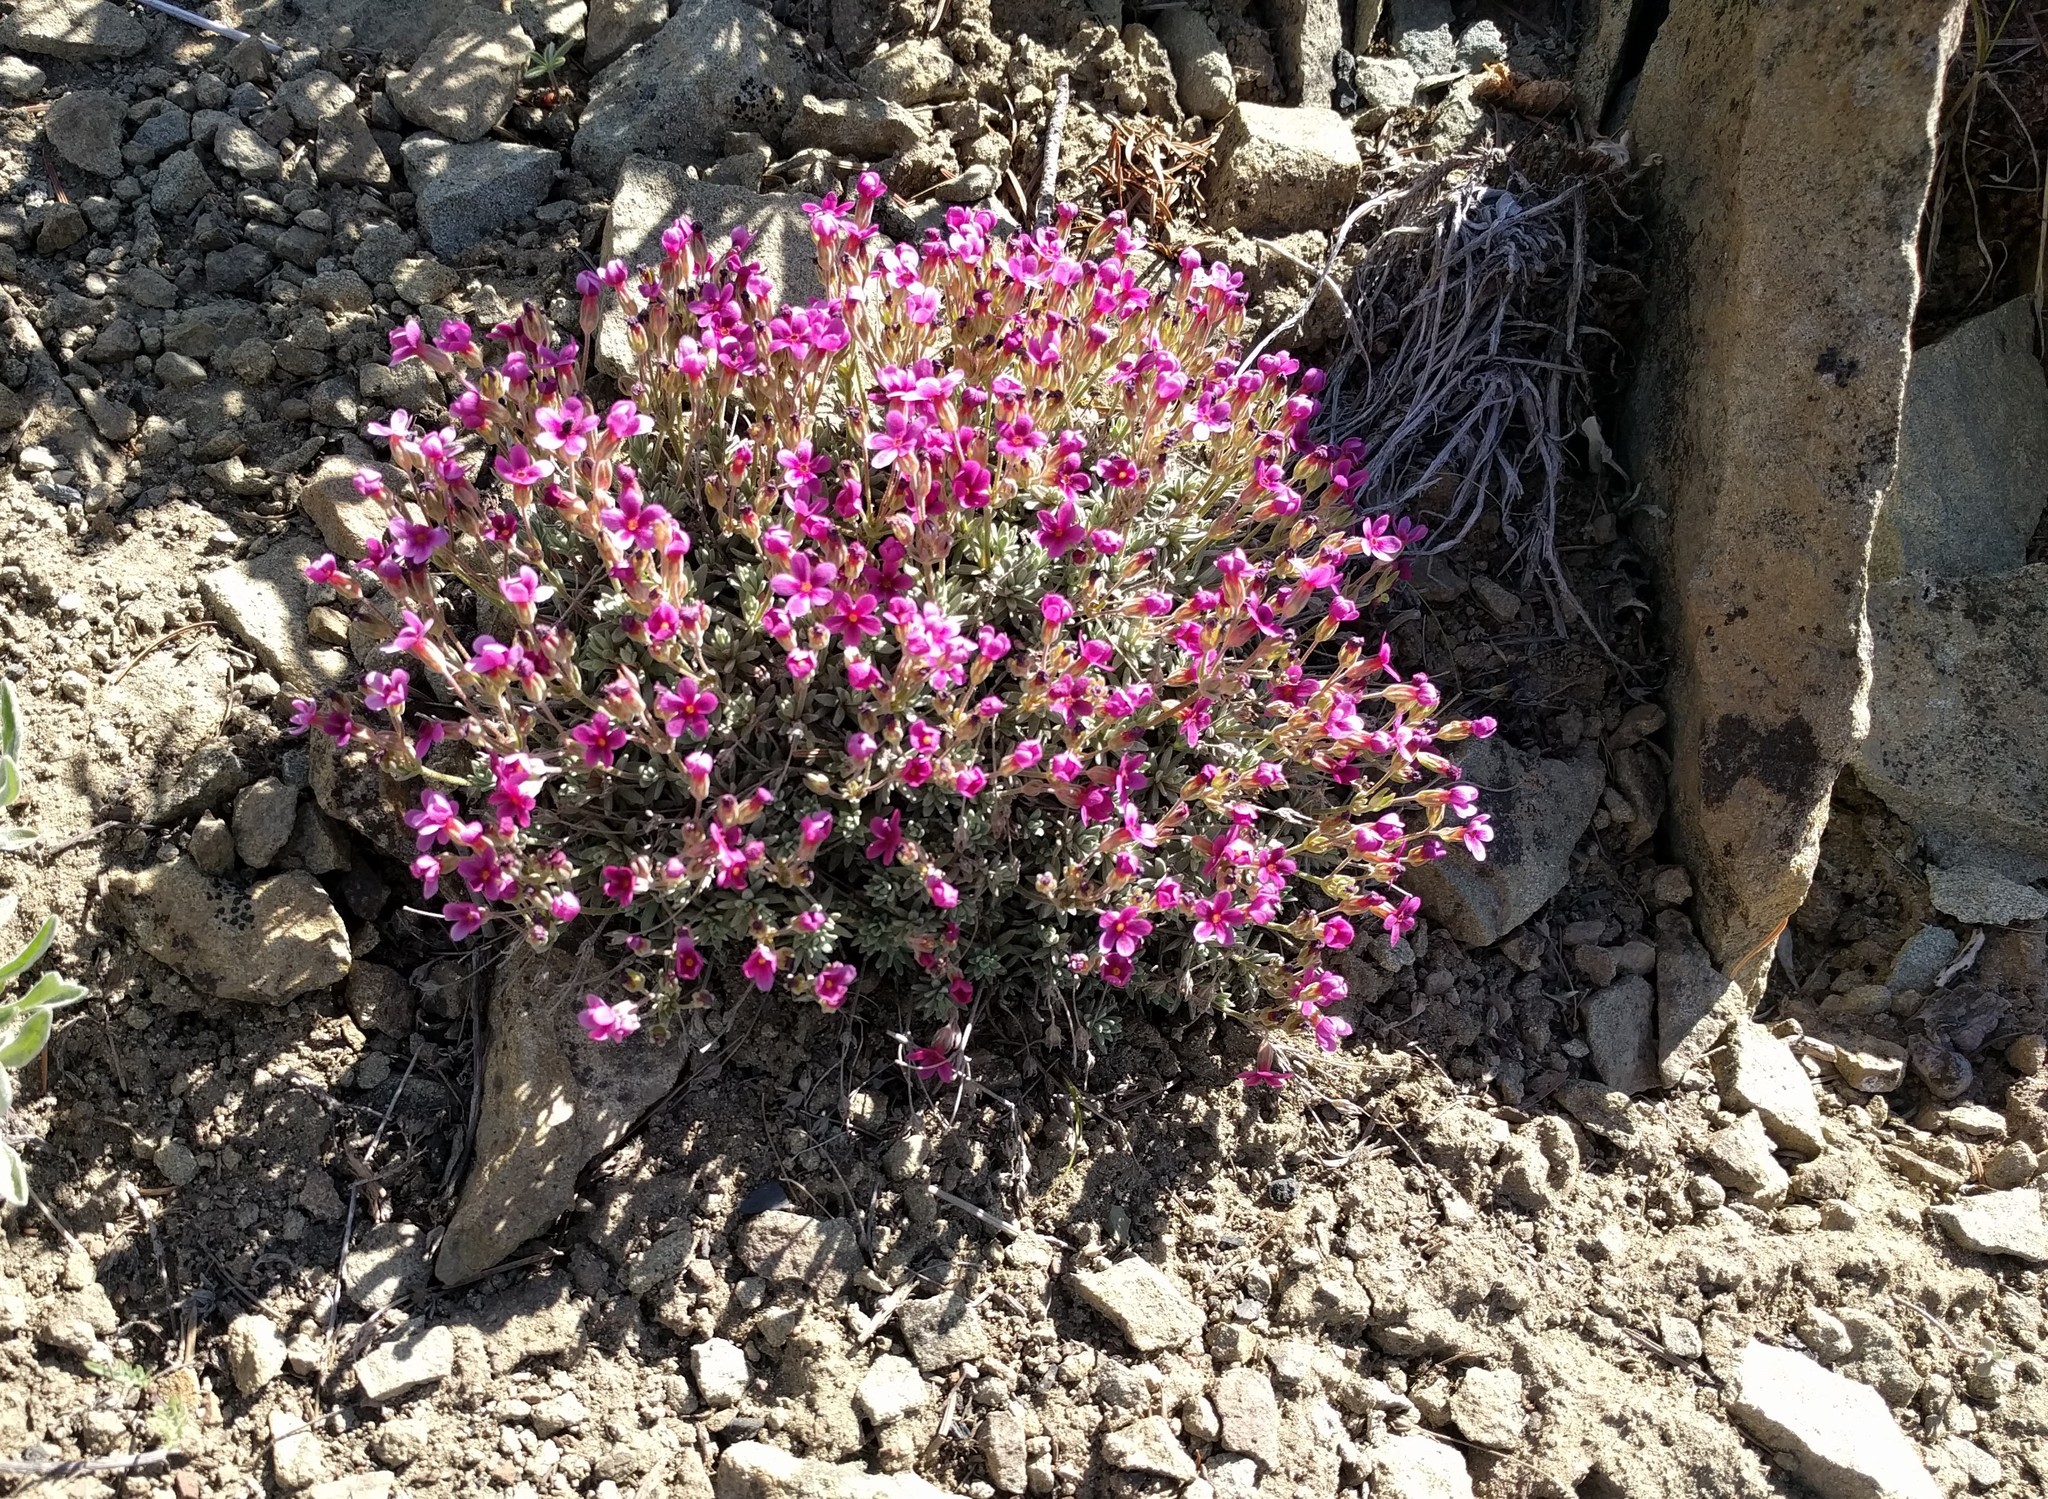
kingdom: Plantae
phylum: Tracheophyta
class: Magnoliopsida
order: Ericales
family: Primulaceae
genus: Androsace
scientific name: Androsace nivalis
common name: Snow dwarf-primrose
